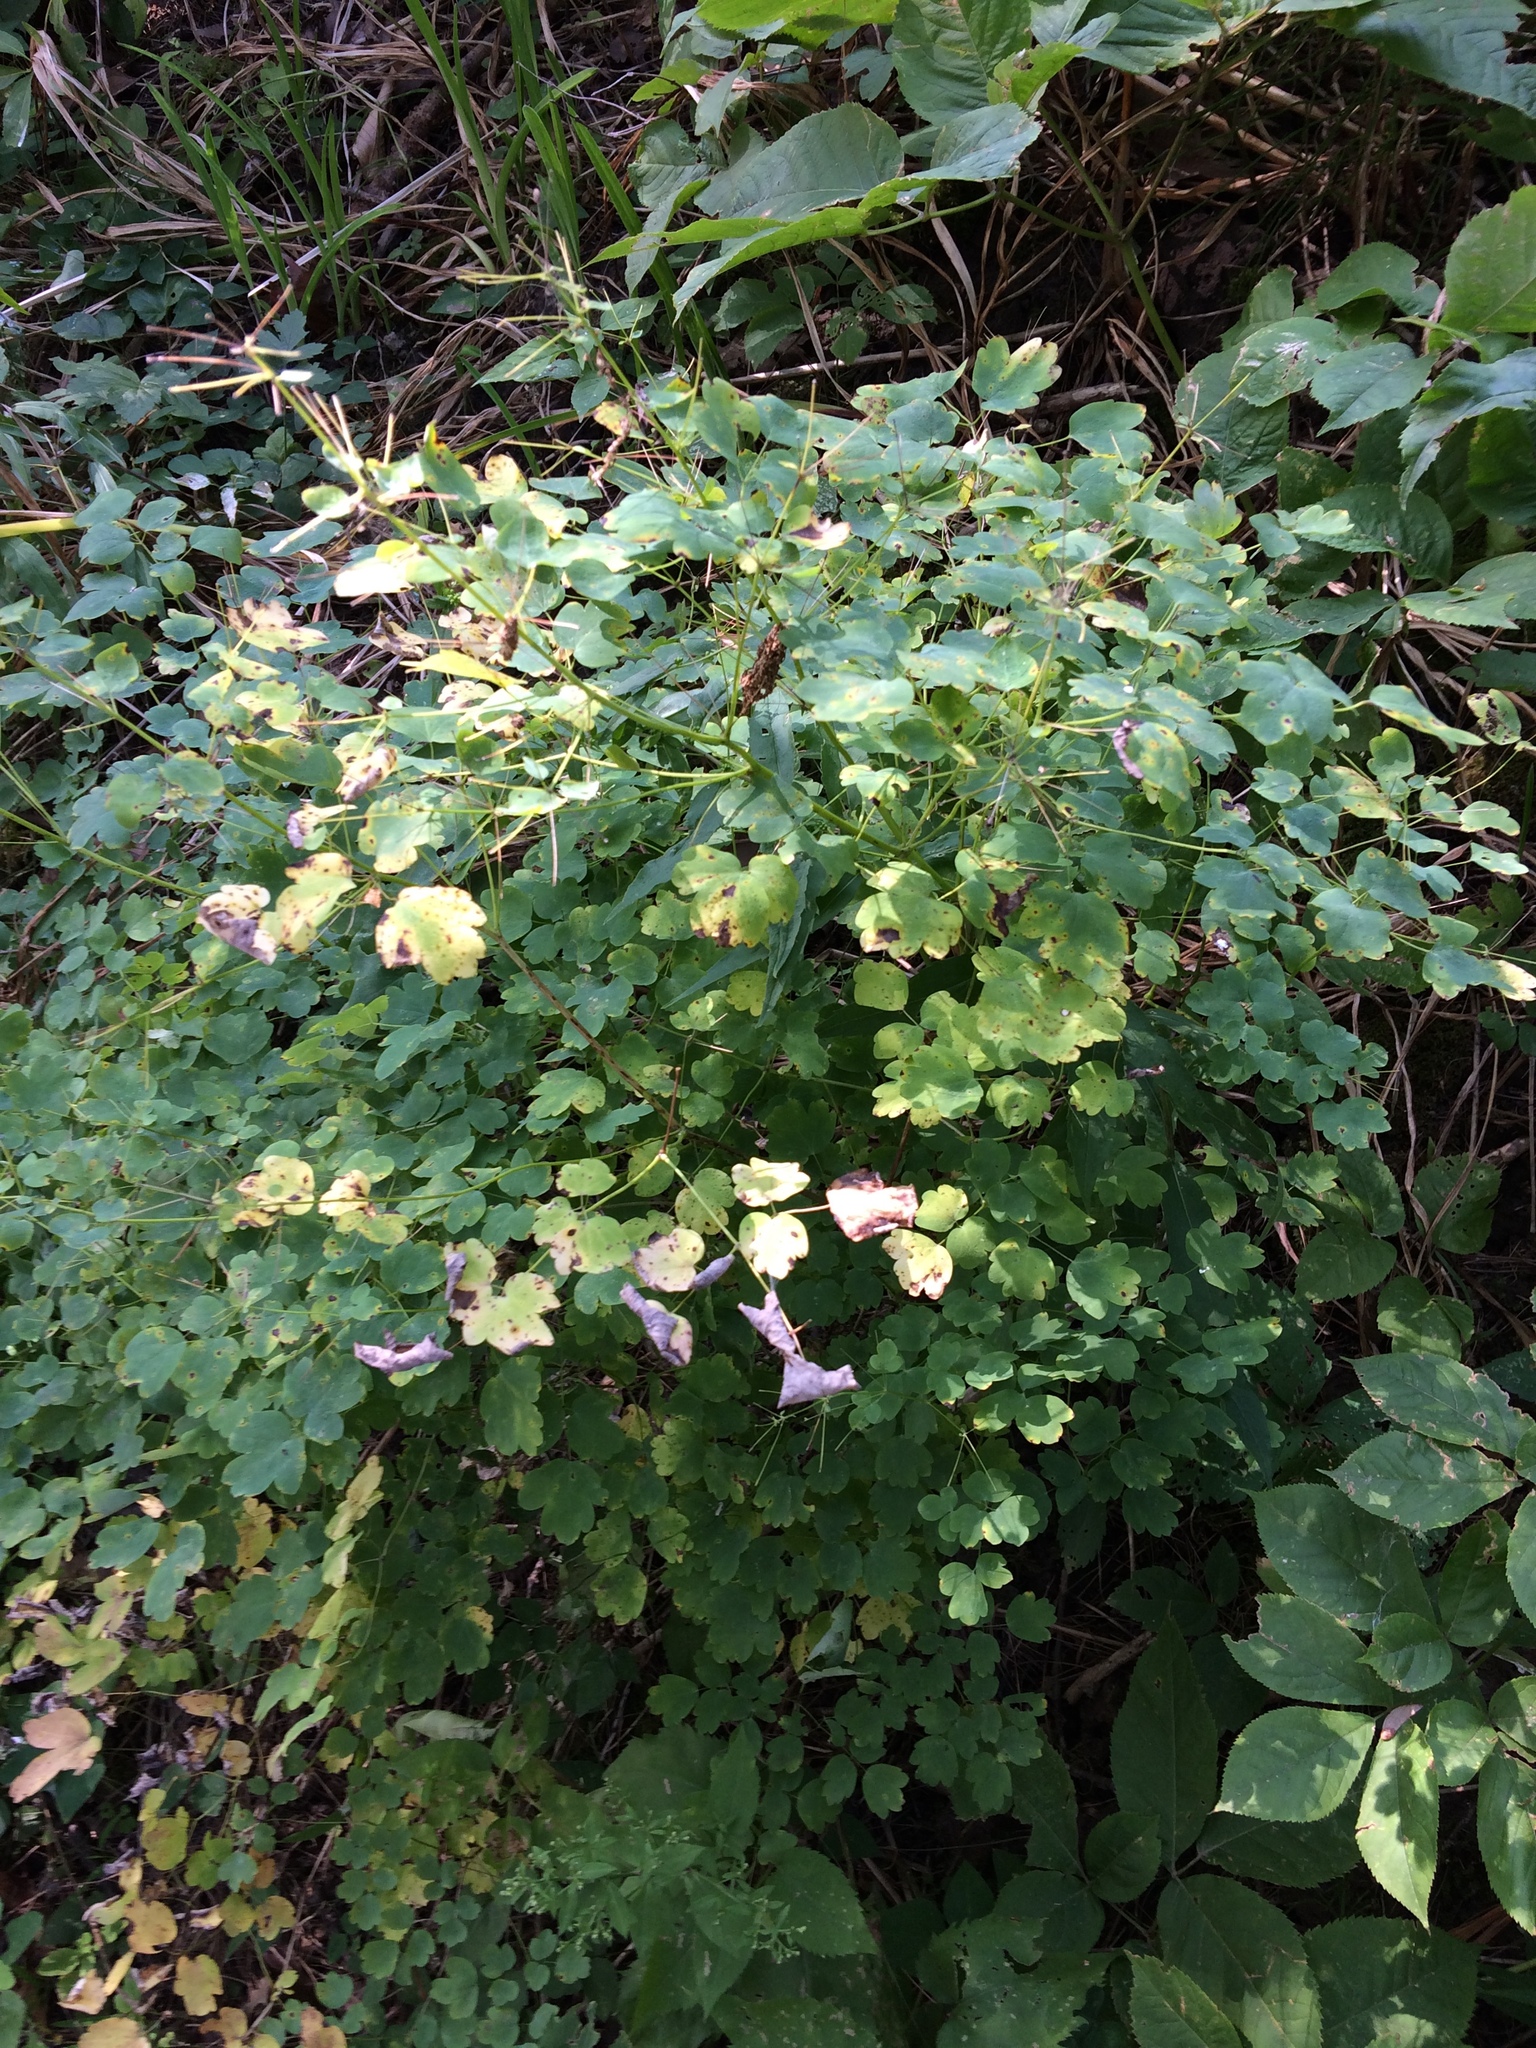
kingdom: Plantae
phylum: Tracheophyta
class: Magnoliopsida
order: Ranunculales
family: Ranunculaceae
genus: Thalictrum
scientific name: Thalictrum pubescens
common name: King-of-the-meadow
